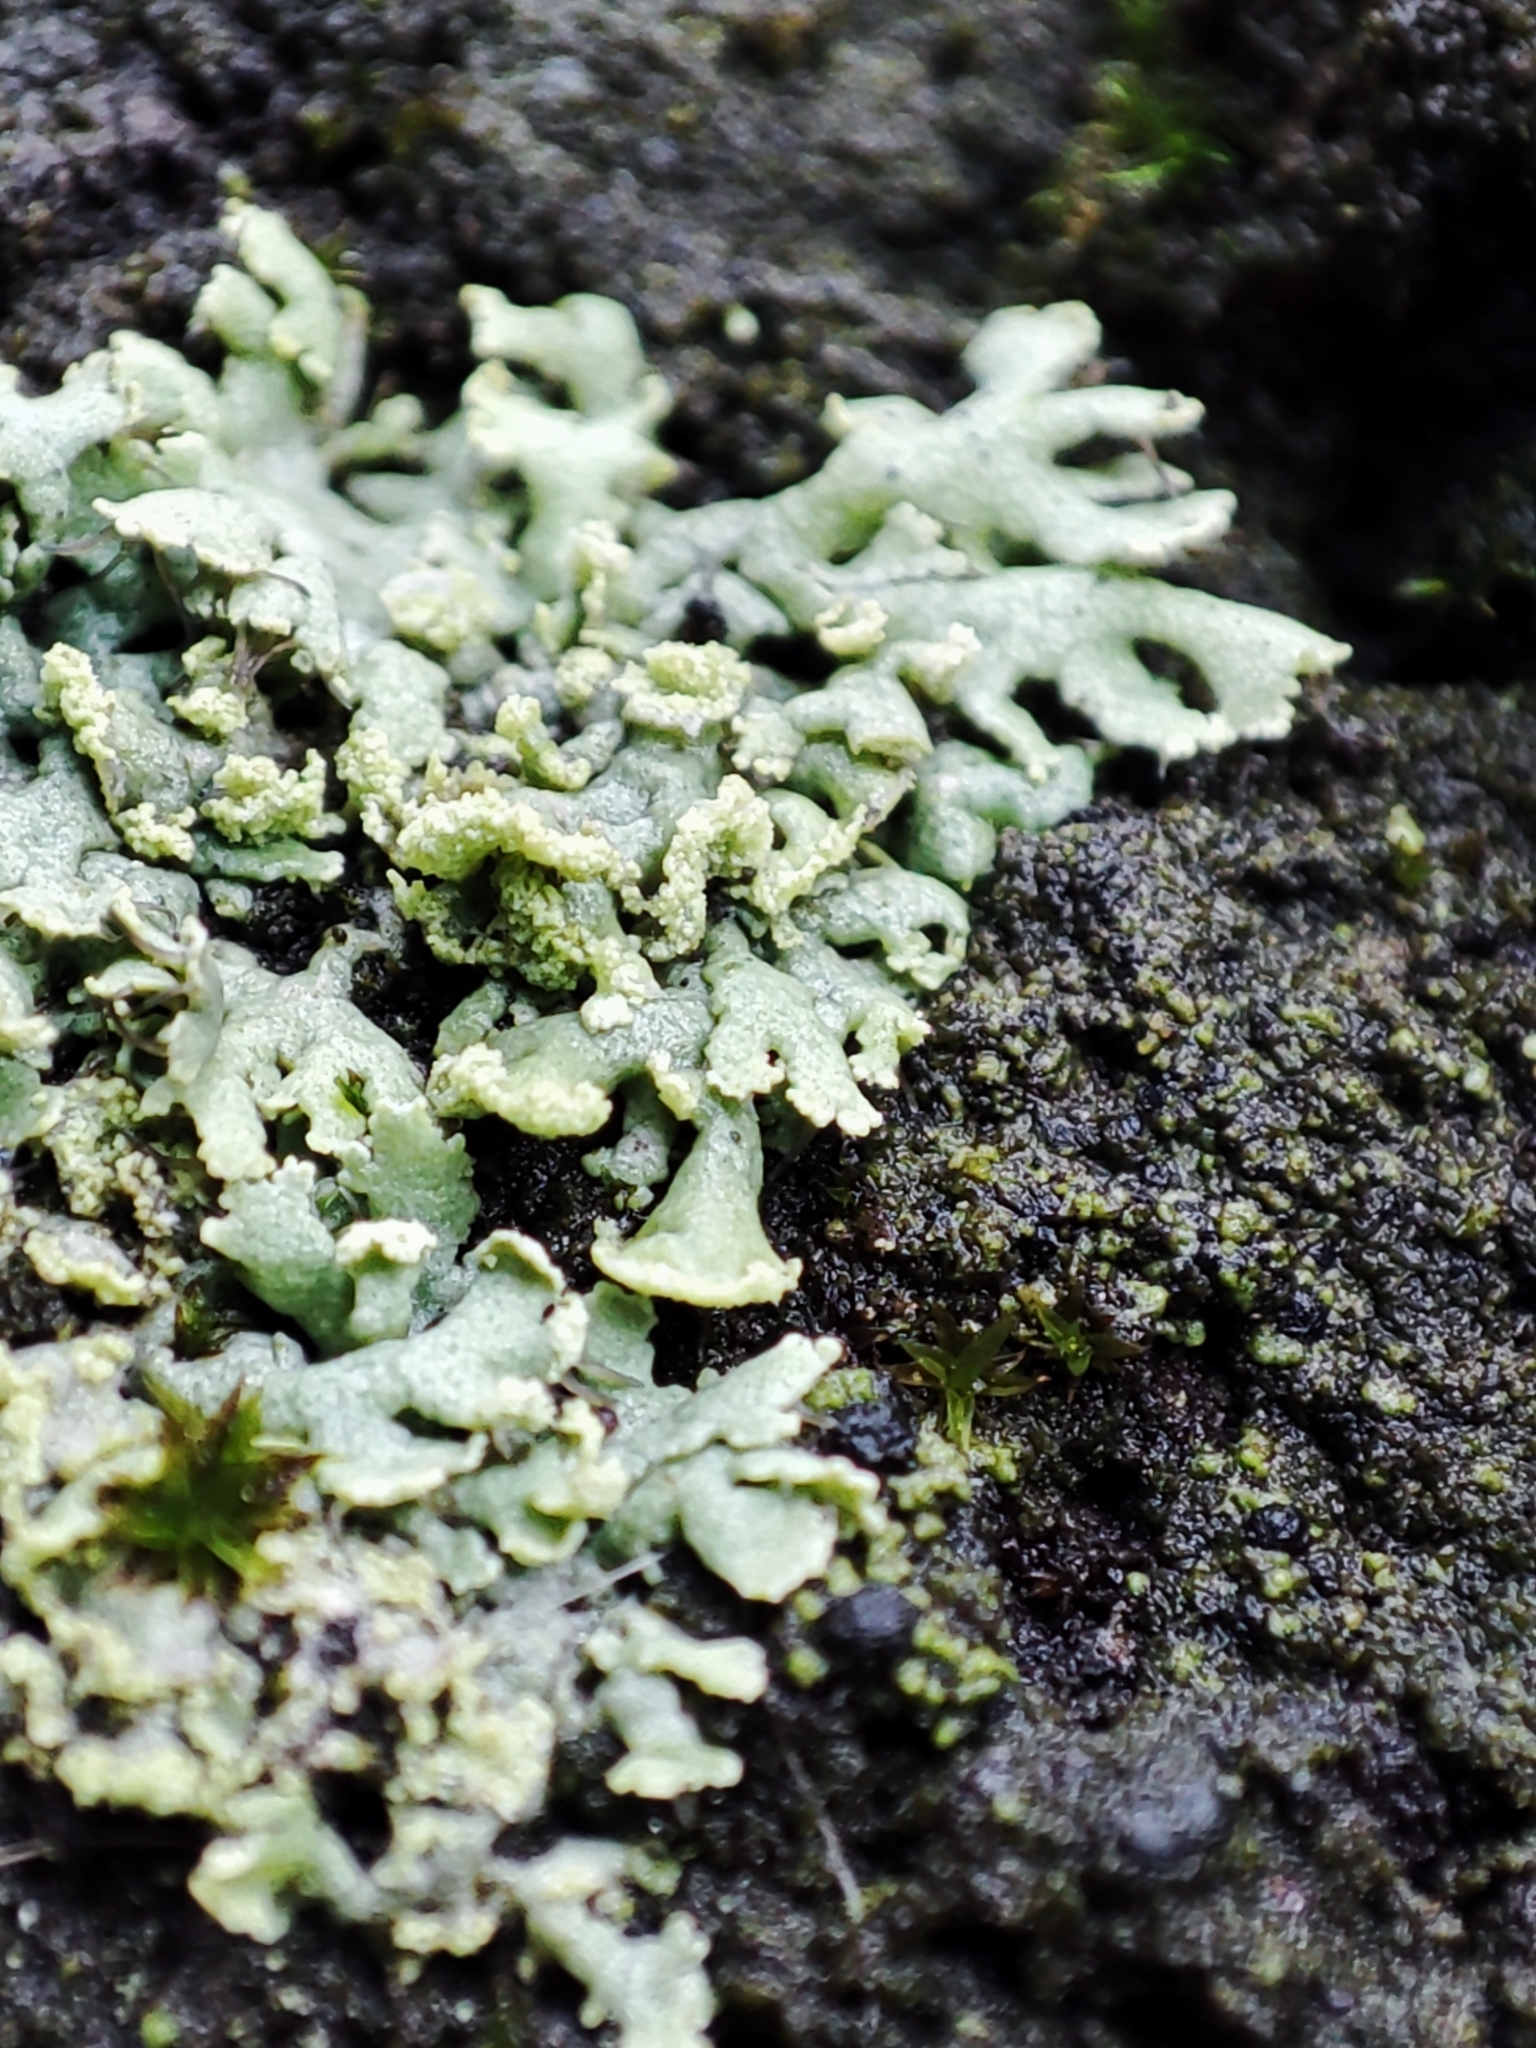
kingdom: Fungi
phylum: Ascomycota
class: Lecanoromycetes
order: Caliciales
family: Physciaceae
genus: Physcia
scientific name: Physcia dubia
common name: Powder-tipped rosette lichen
